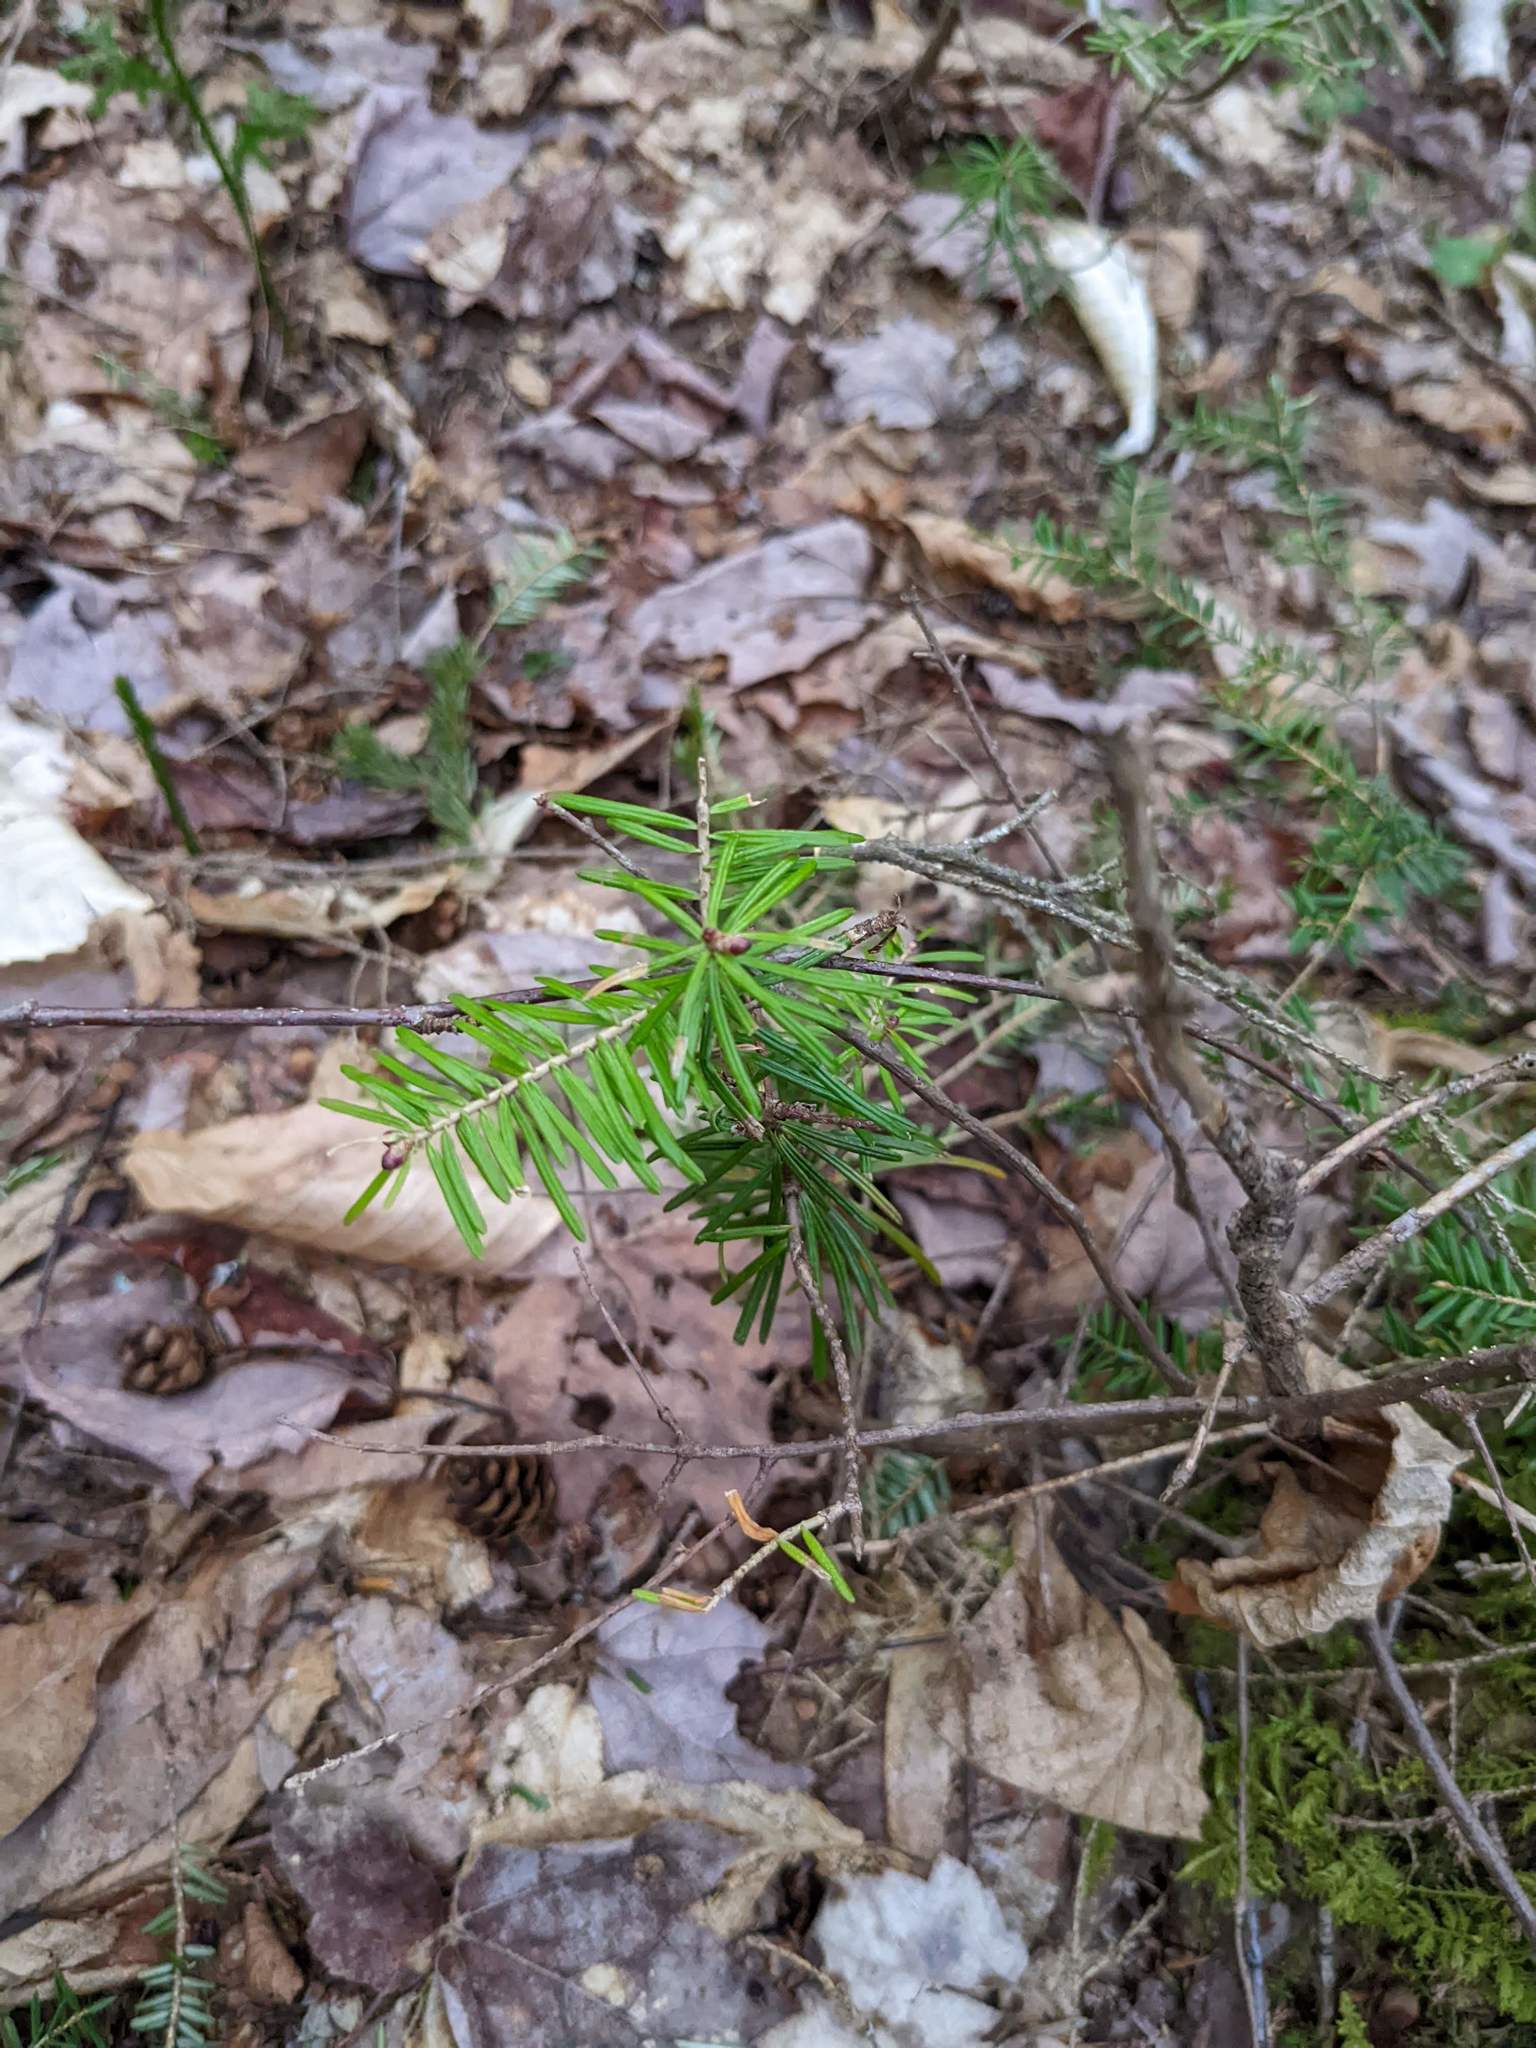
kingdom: Plantae
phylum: Tracheophyta
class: Pinopsida
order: Pinales
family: Pinaceae
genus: Abies
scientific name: Abies balsamea
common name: Balsam fir
